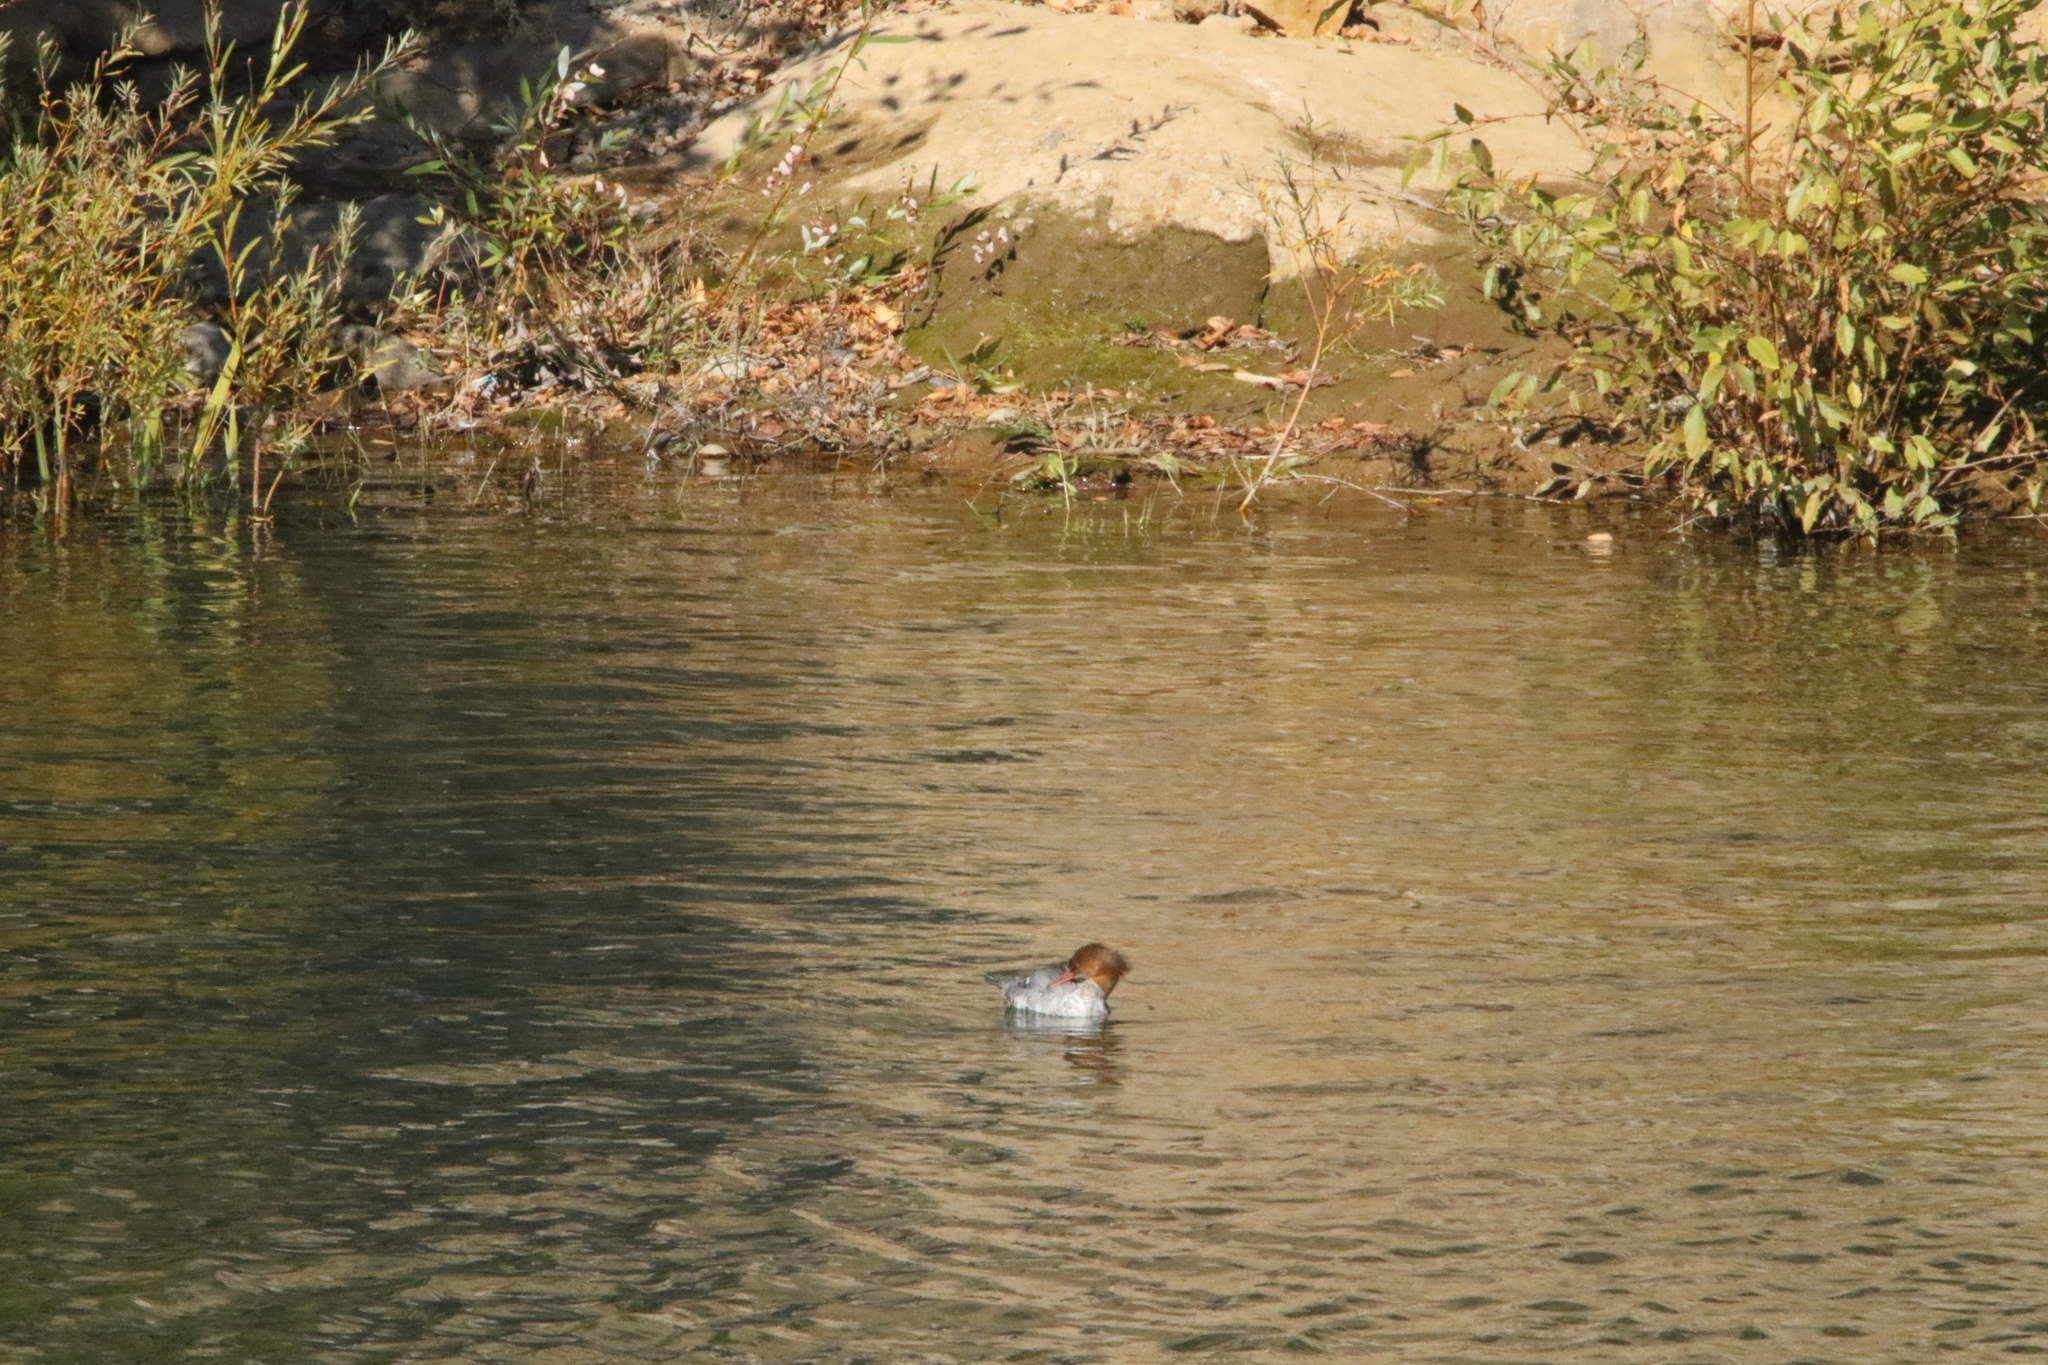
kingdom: Animalia
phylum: Chordata
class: Aves
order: Anseriformes
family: Anatidae
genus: Mergus
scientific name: Mergus merganser
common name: Common merganser
